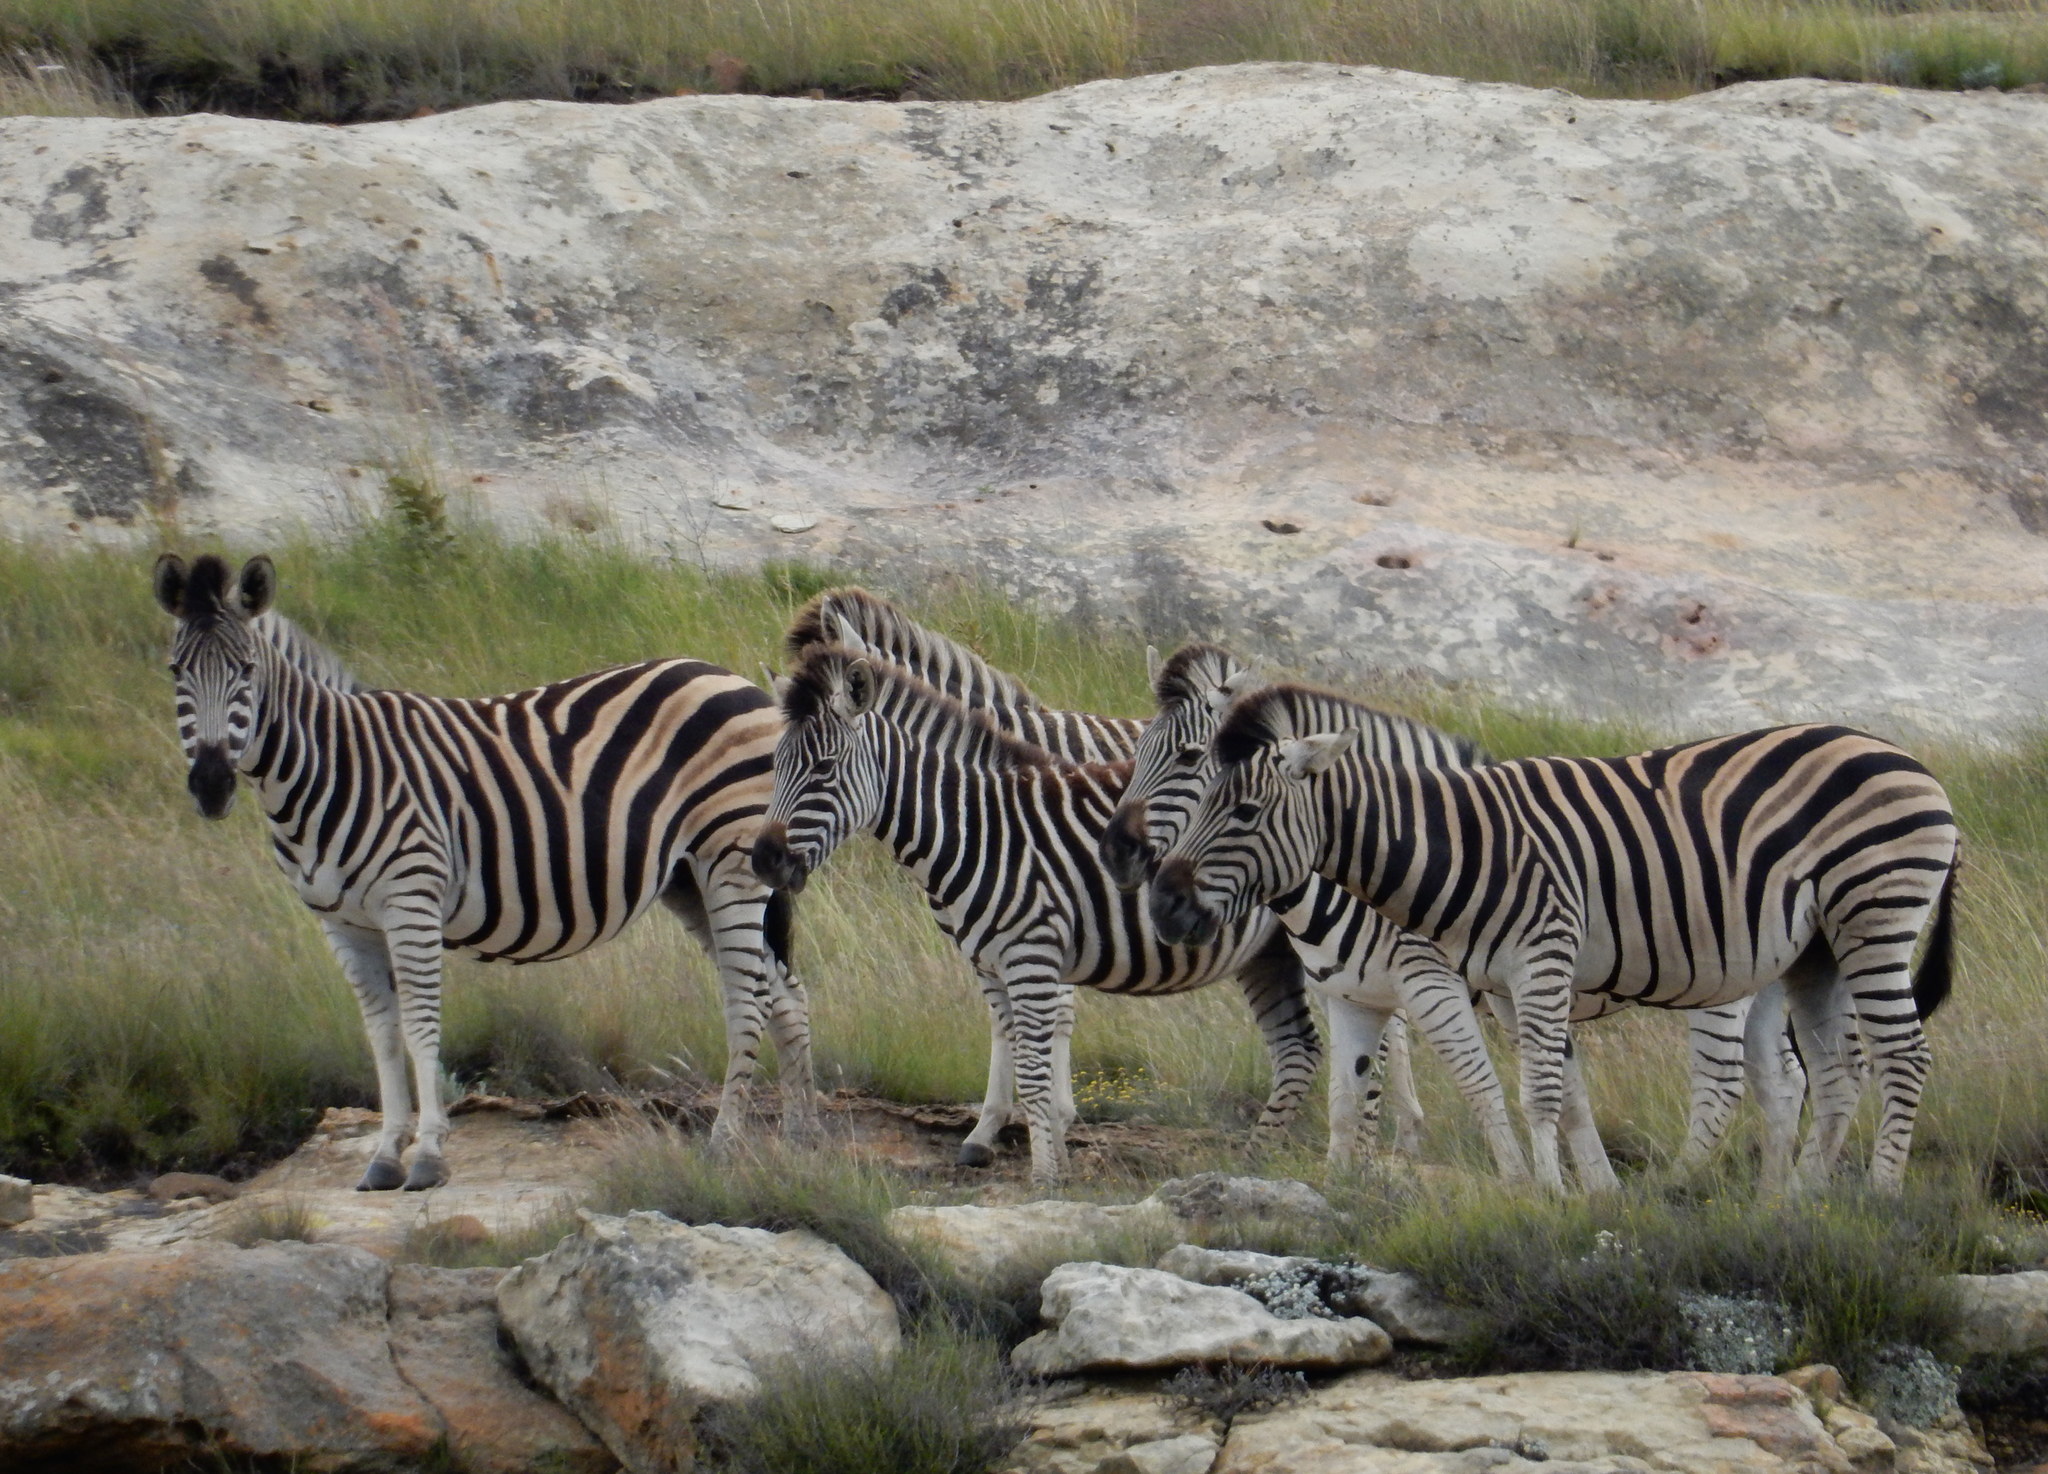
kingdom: Animalia
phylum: Chordata
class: Mammalia
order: Perissodactyla
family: Equidae
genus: Equus
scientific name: Equus quagga
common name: Plains zebra
